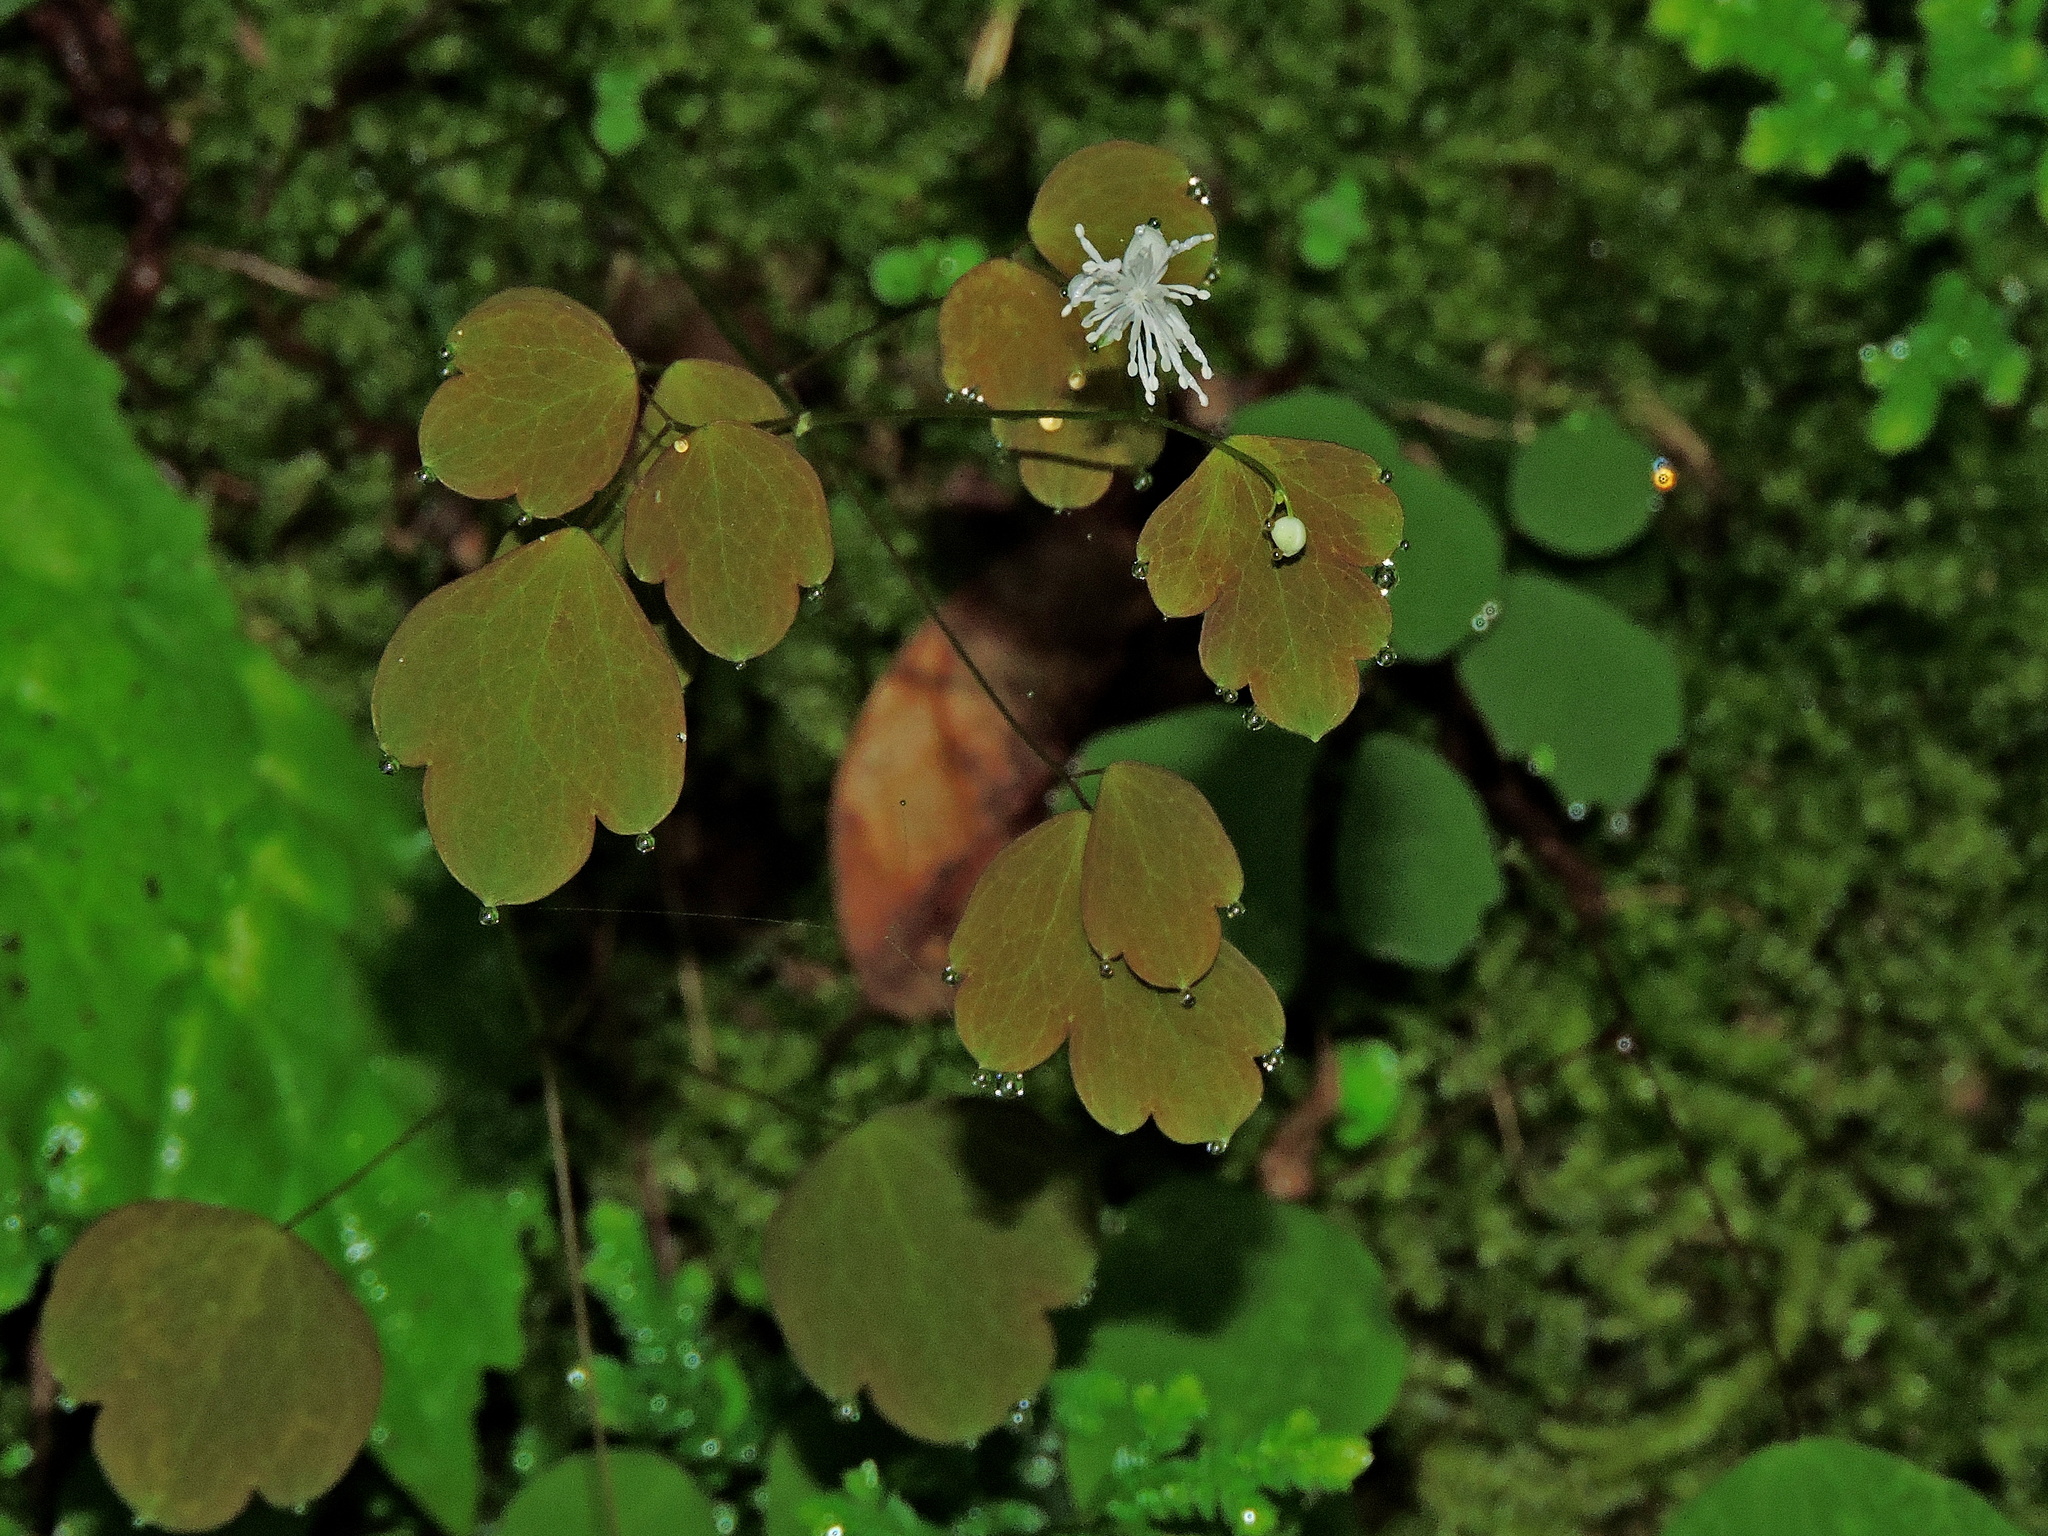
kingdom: Plantae
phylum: Tracheophyta
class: Magnoliopsida
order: Ranunculales
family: Ranunculaceae
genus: Thalictrum
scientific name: Thalictrum urbaini
